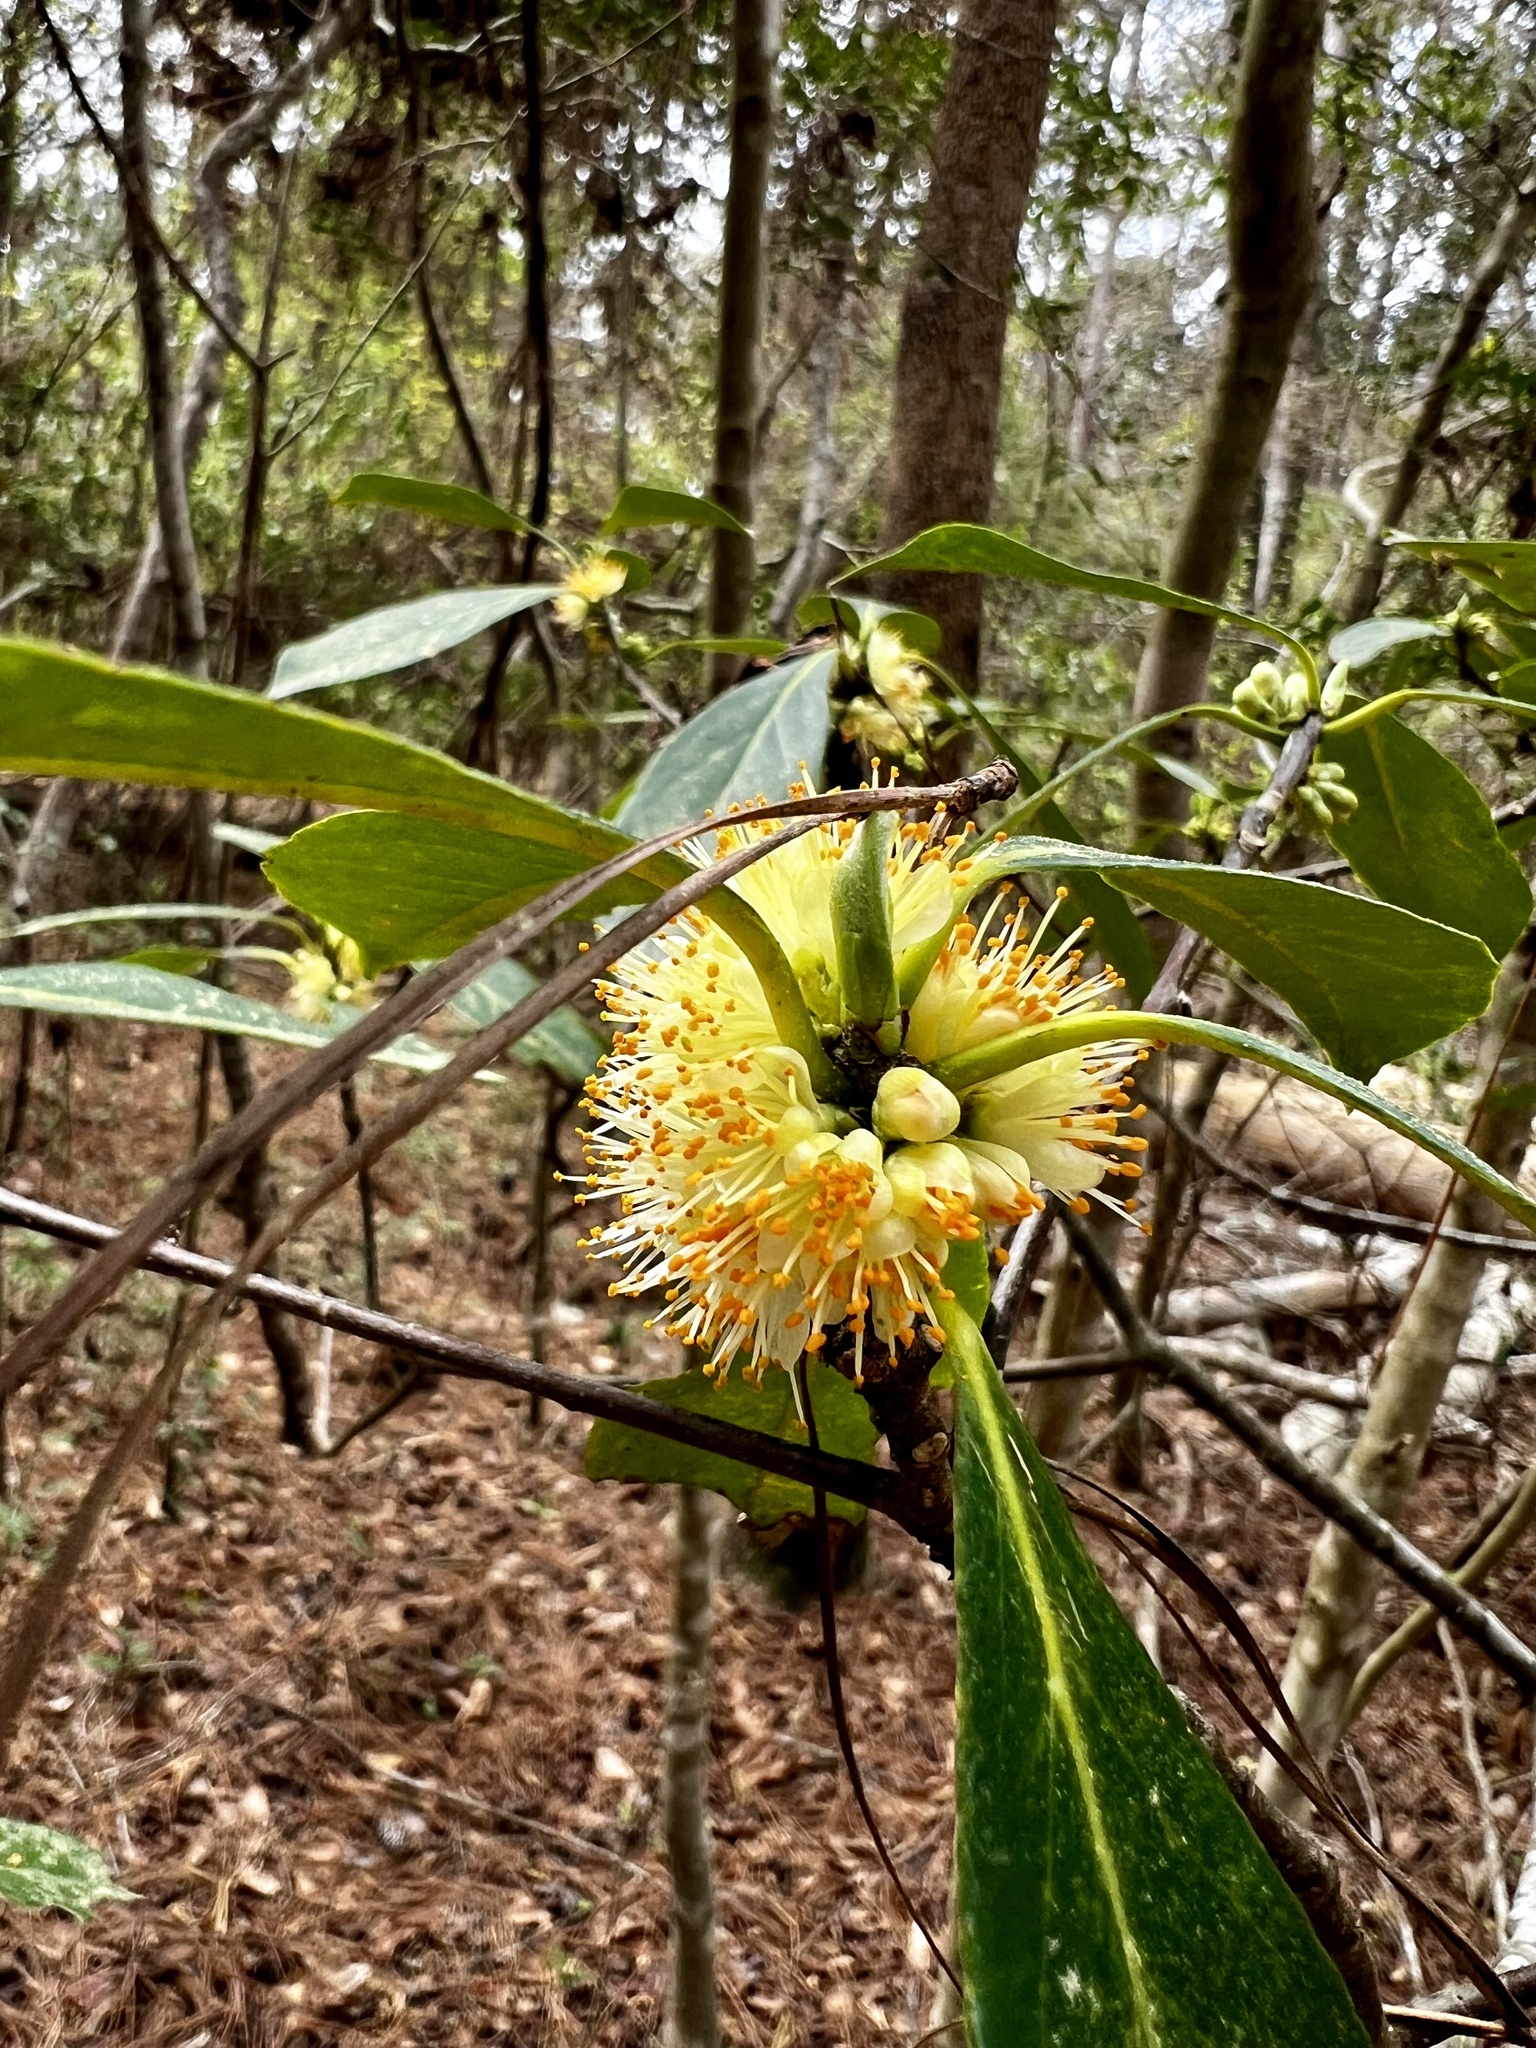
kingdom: Plantae
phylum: Tracheophyta
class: Magnoliopsida
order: Ericales
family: Symplocaceae
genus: Symplocos
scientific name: Symplocos tinctoria
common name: Horse-sugar
